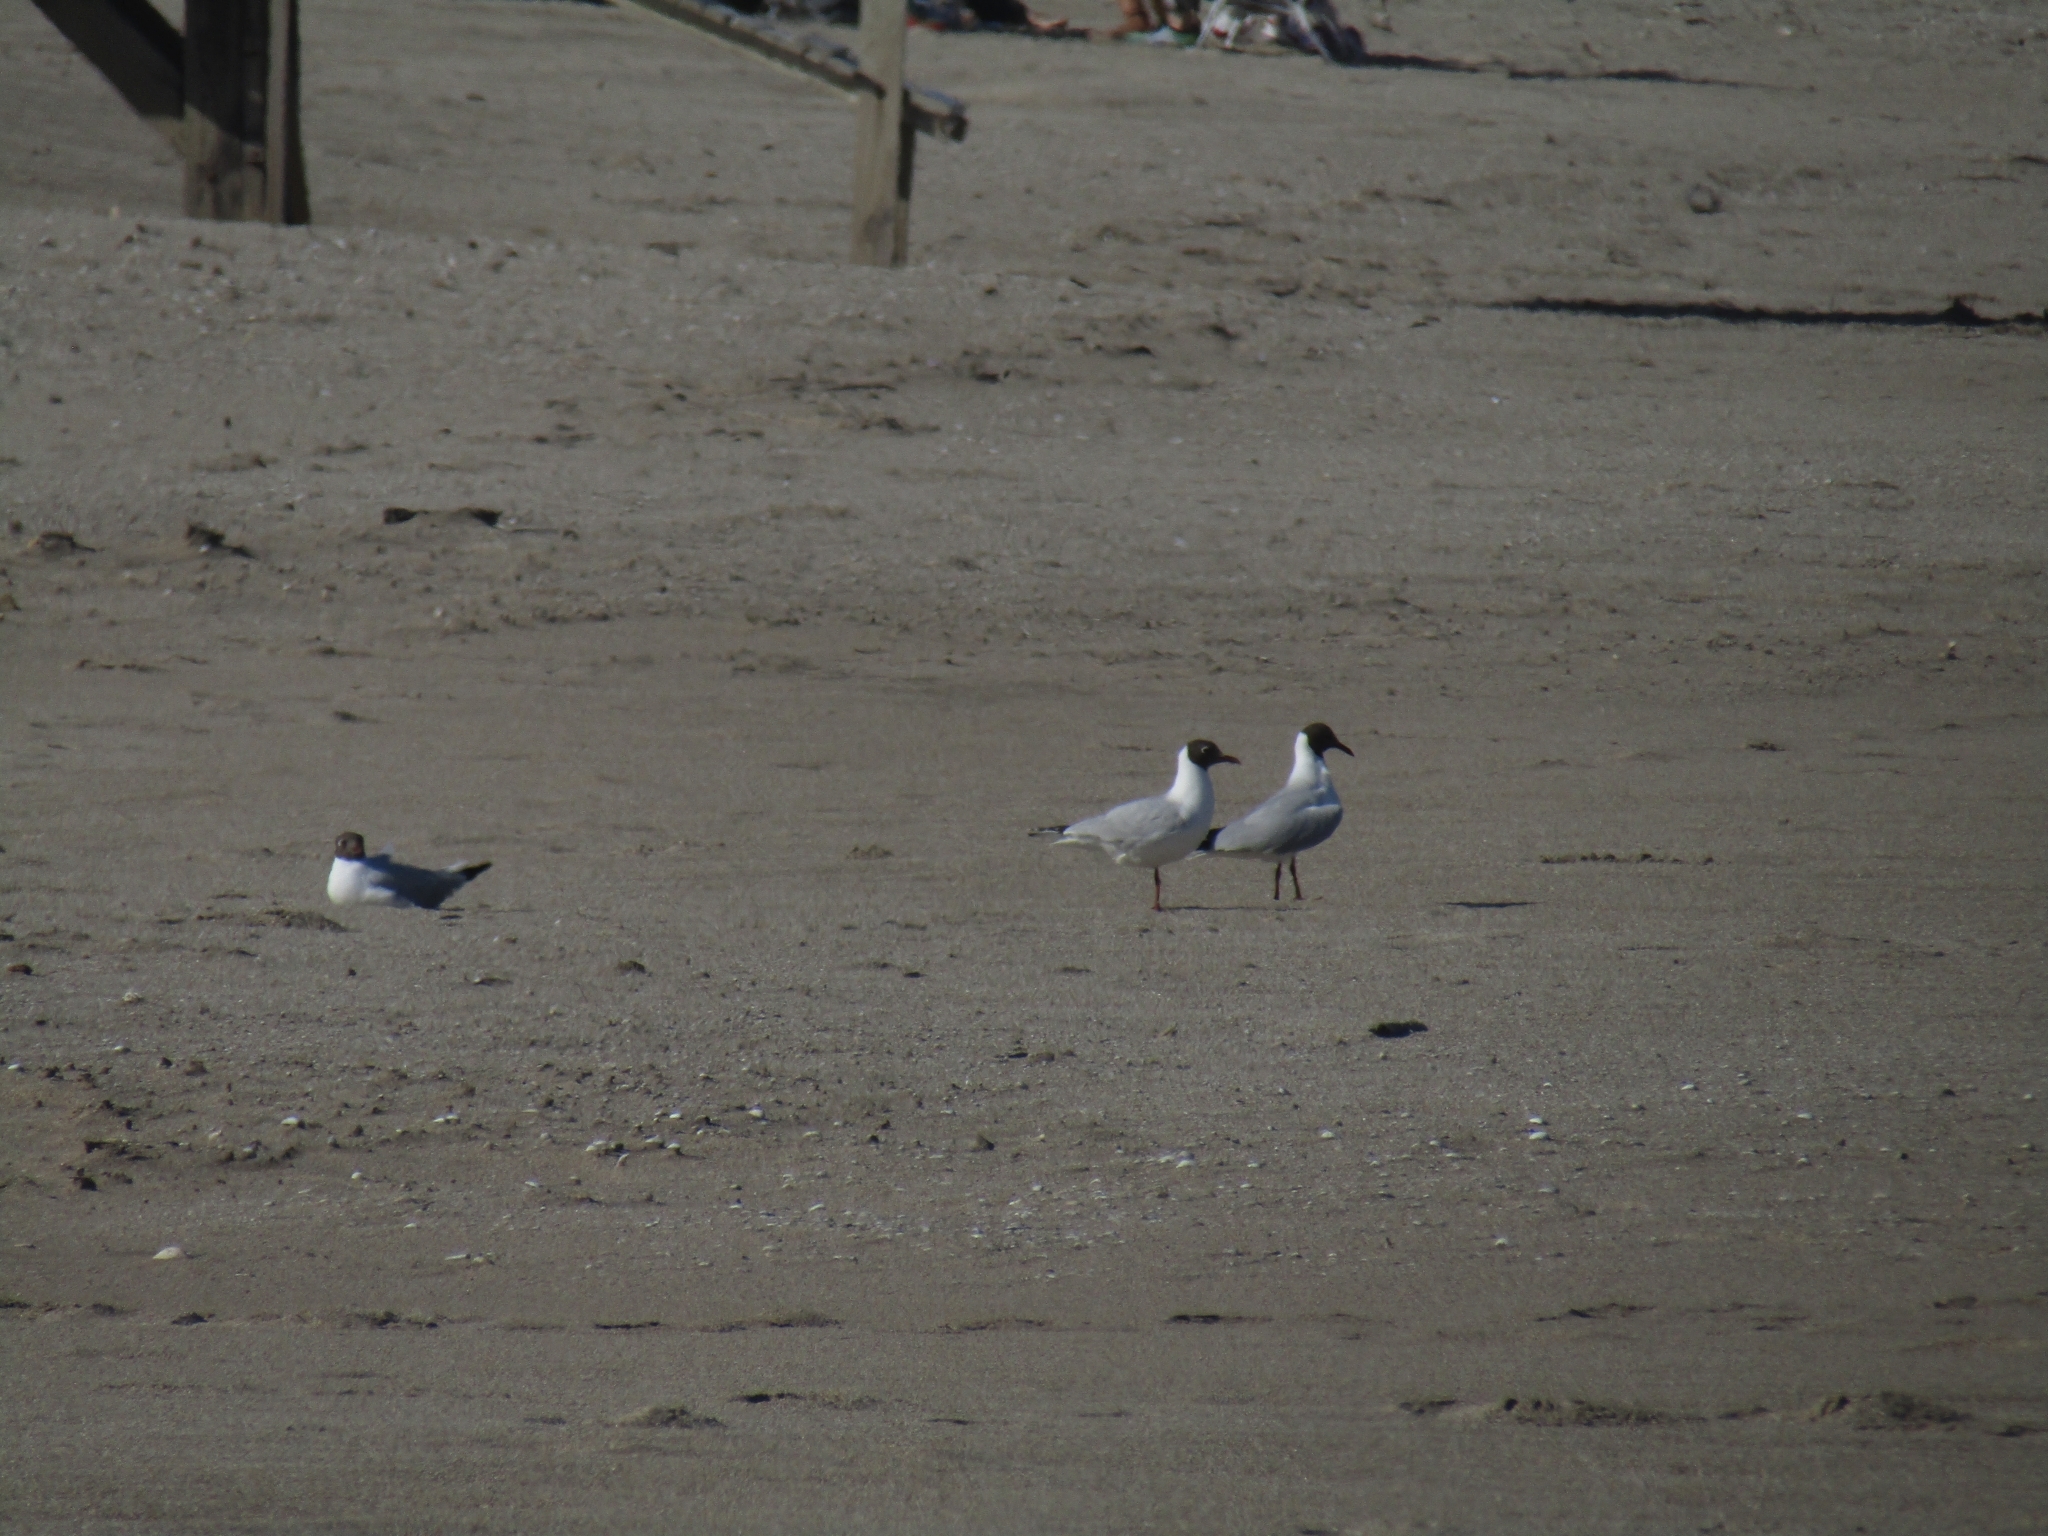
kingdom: Animalia
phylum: Chordata
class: Aves
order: Charadriiformes
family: Laridae
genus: Chroicocephalus
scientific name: Chroicocephalus maculipennis
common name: Brown-hooded gull
